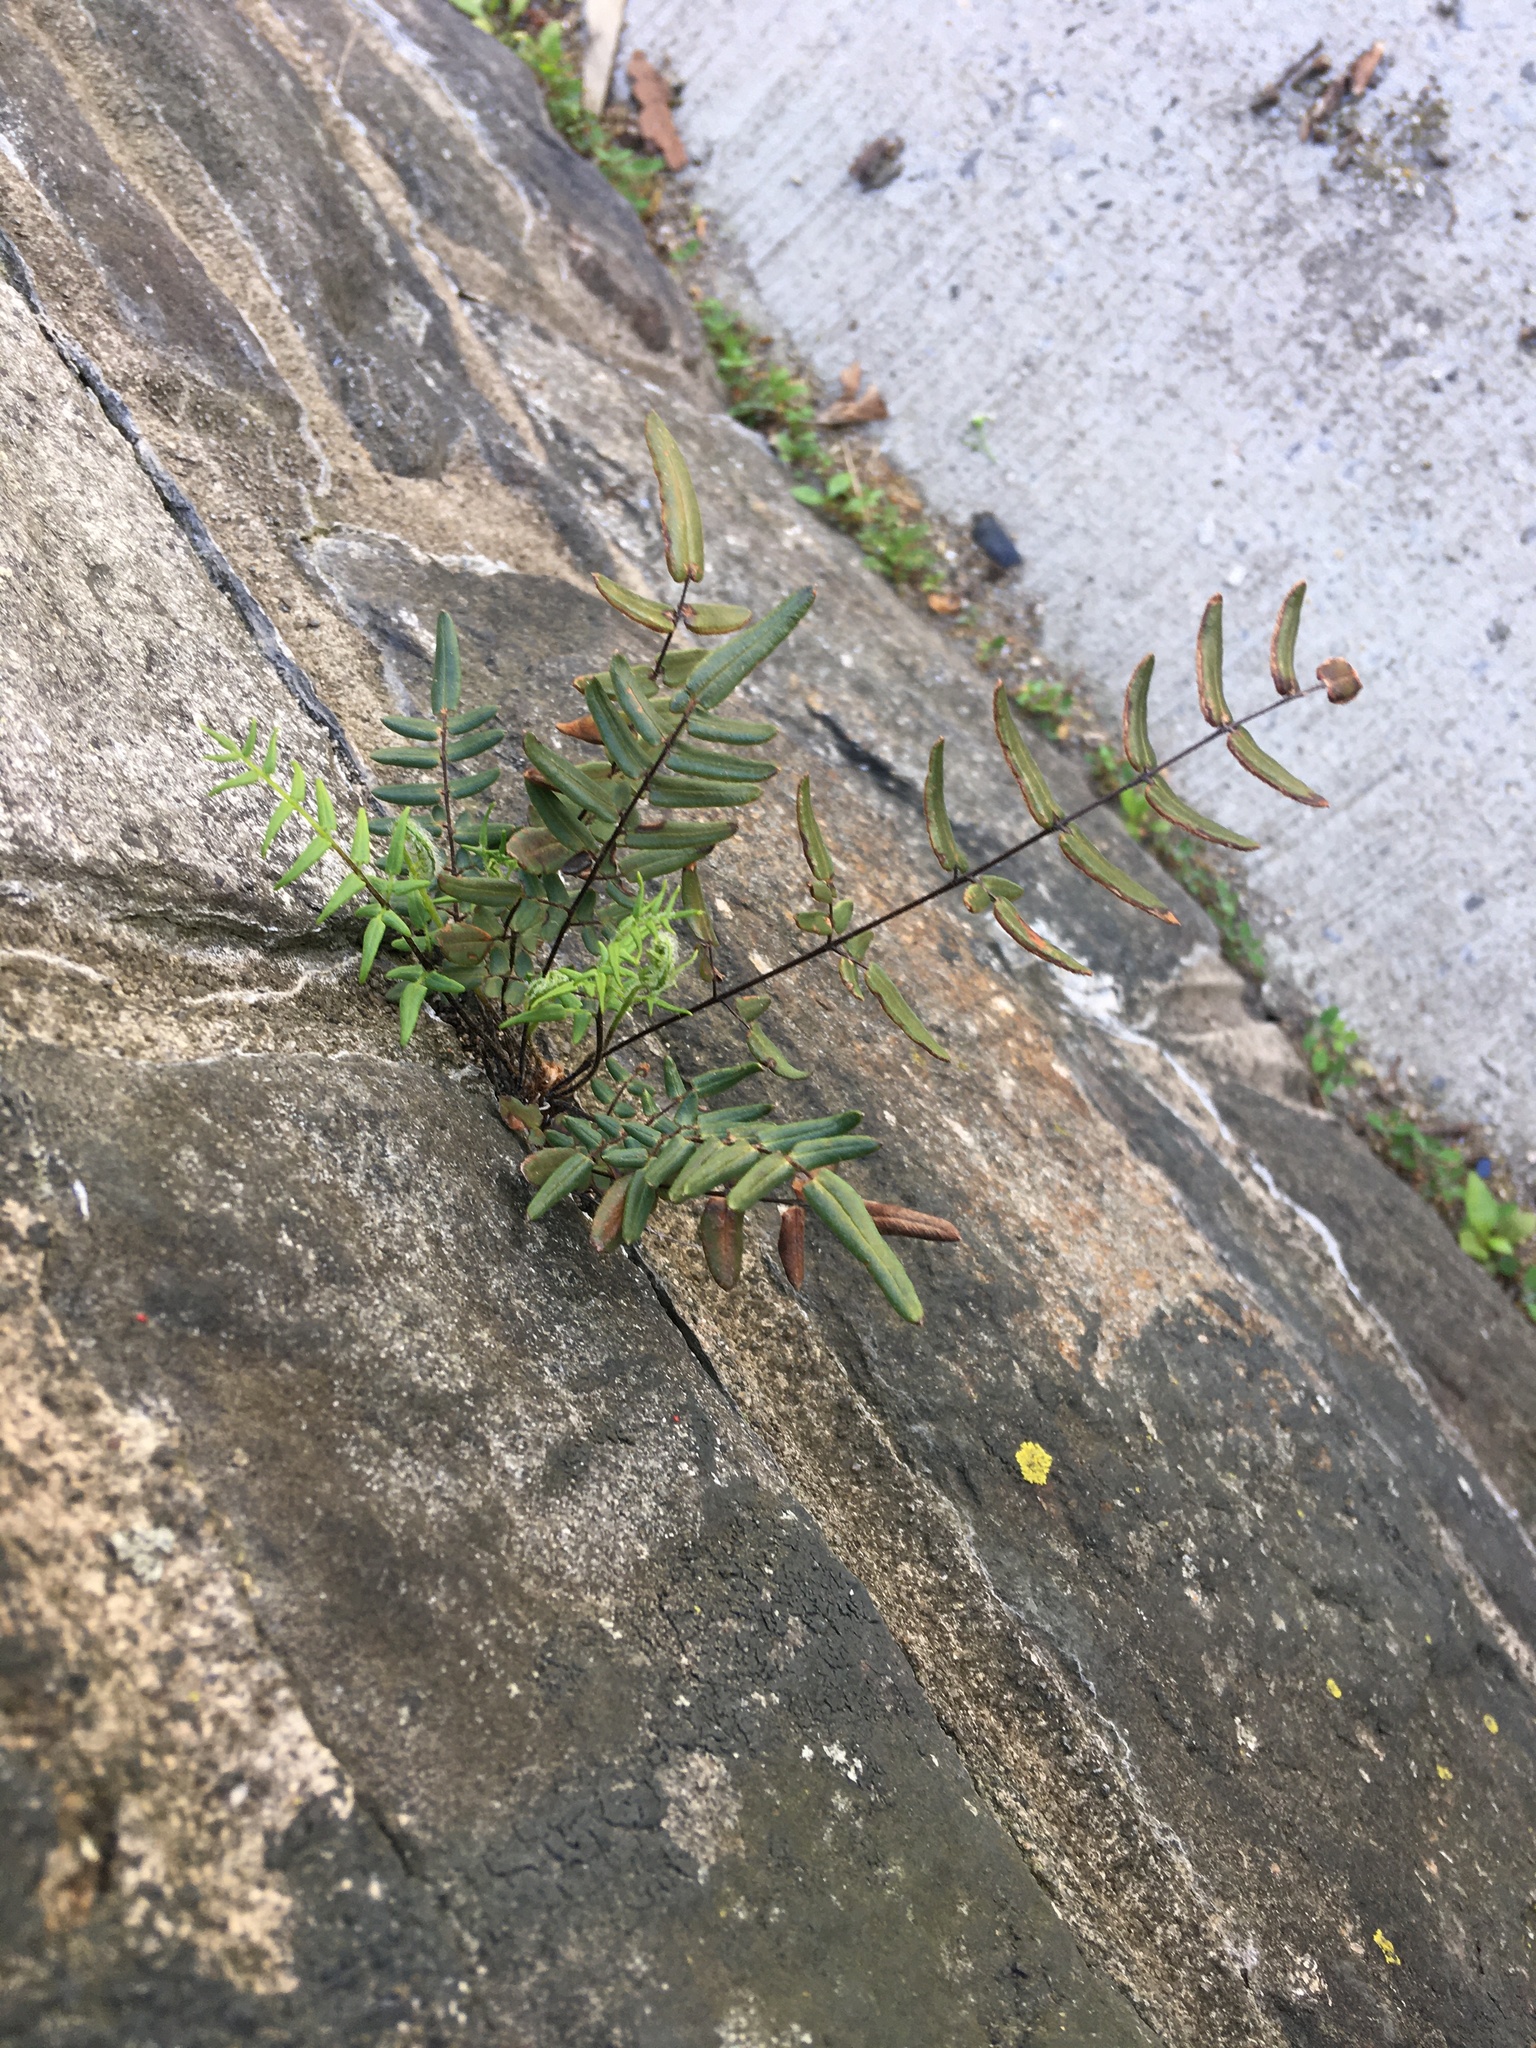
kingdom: Plantae
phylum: Tracheophyta
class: Polypodiopsida
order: Polypodiales
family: Pteridaceae
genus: Pellaea
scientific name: Pellaea atropurpurea
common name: Hairy cliffbrake
